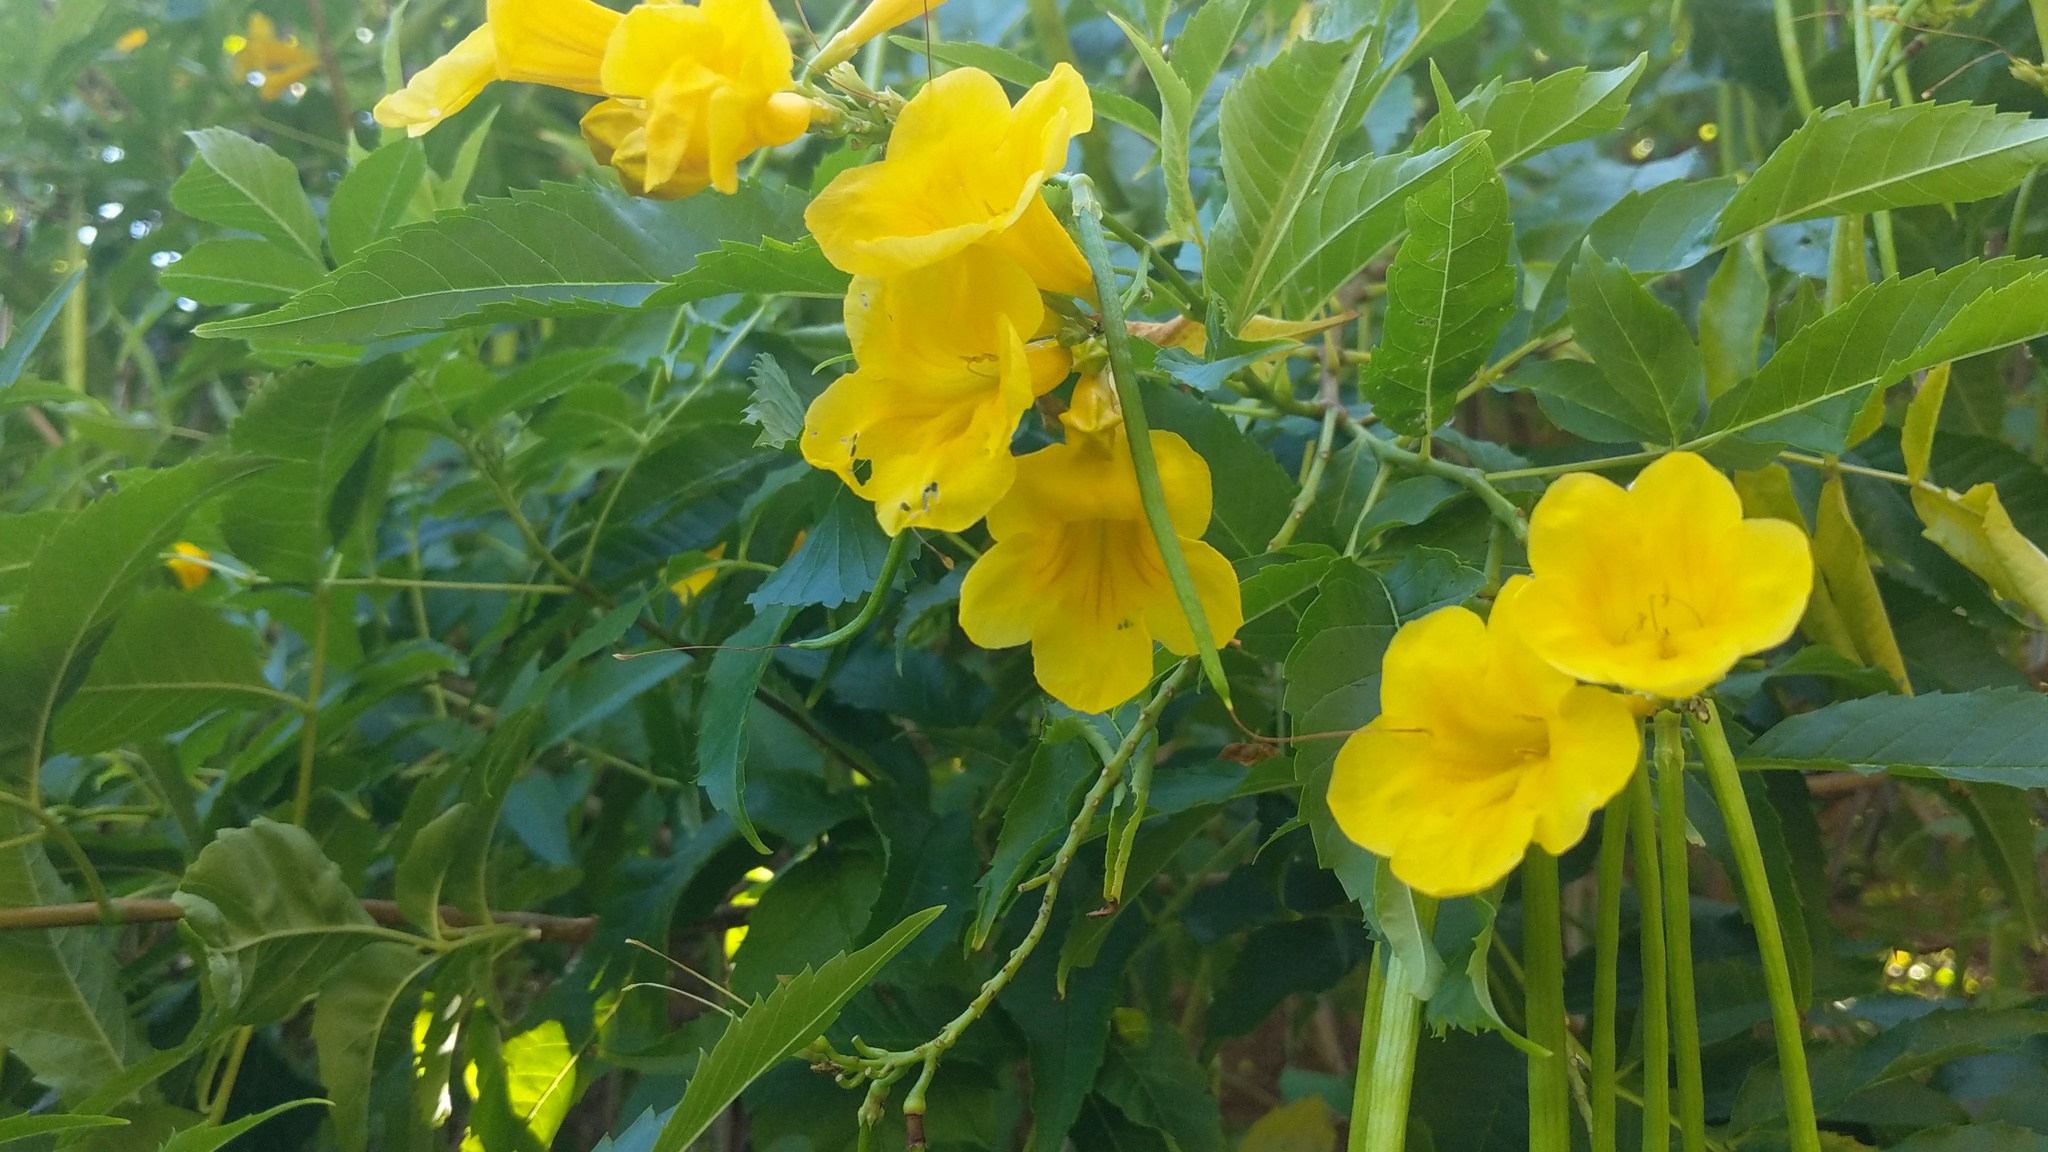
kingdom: Plantae
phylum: Tracheophyta
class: Magnoliopsida
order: Lamiales
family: Bignoniaceae
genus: Tecoma
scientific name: Tecoma stans
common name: Yellow trumpetbush
